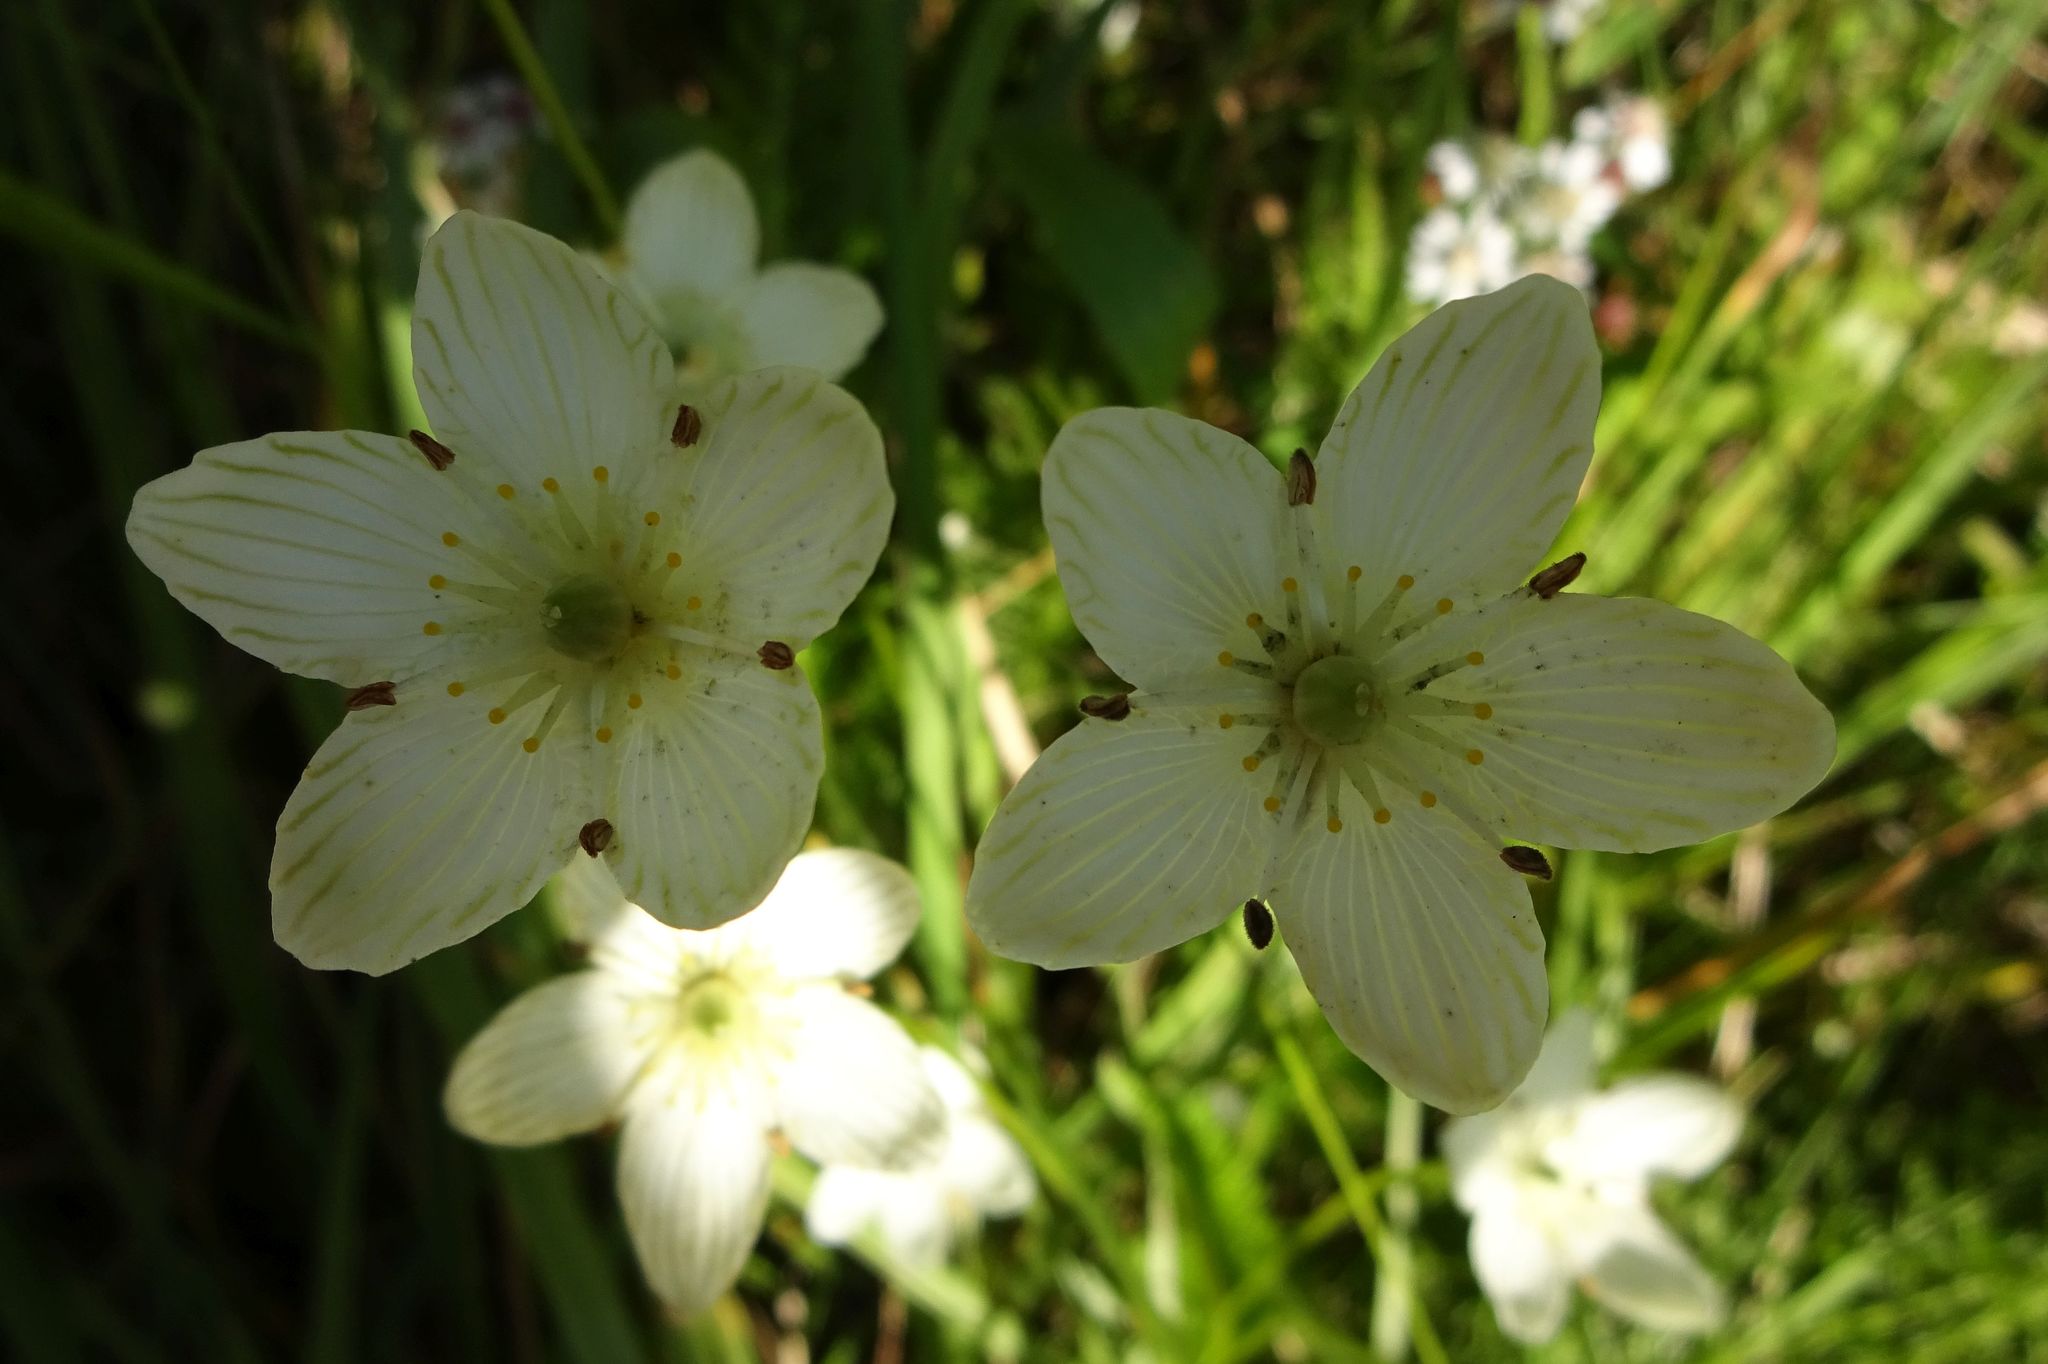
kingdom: Plantae
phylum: Tracheophyta
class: Magnoliopsida
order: Celastrales
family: Parnassiaceae
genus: Parnassia
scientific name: Parnassia glauca
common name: American grass-of-parnassus
